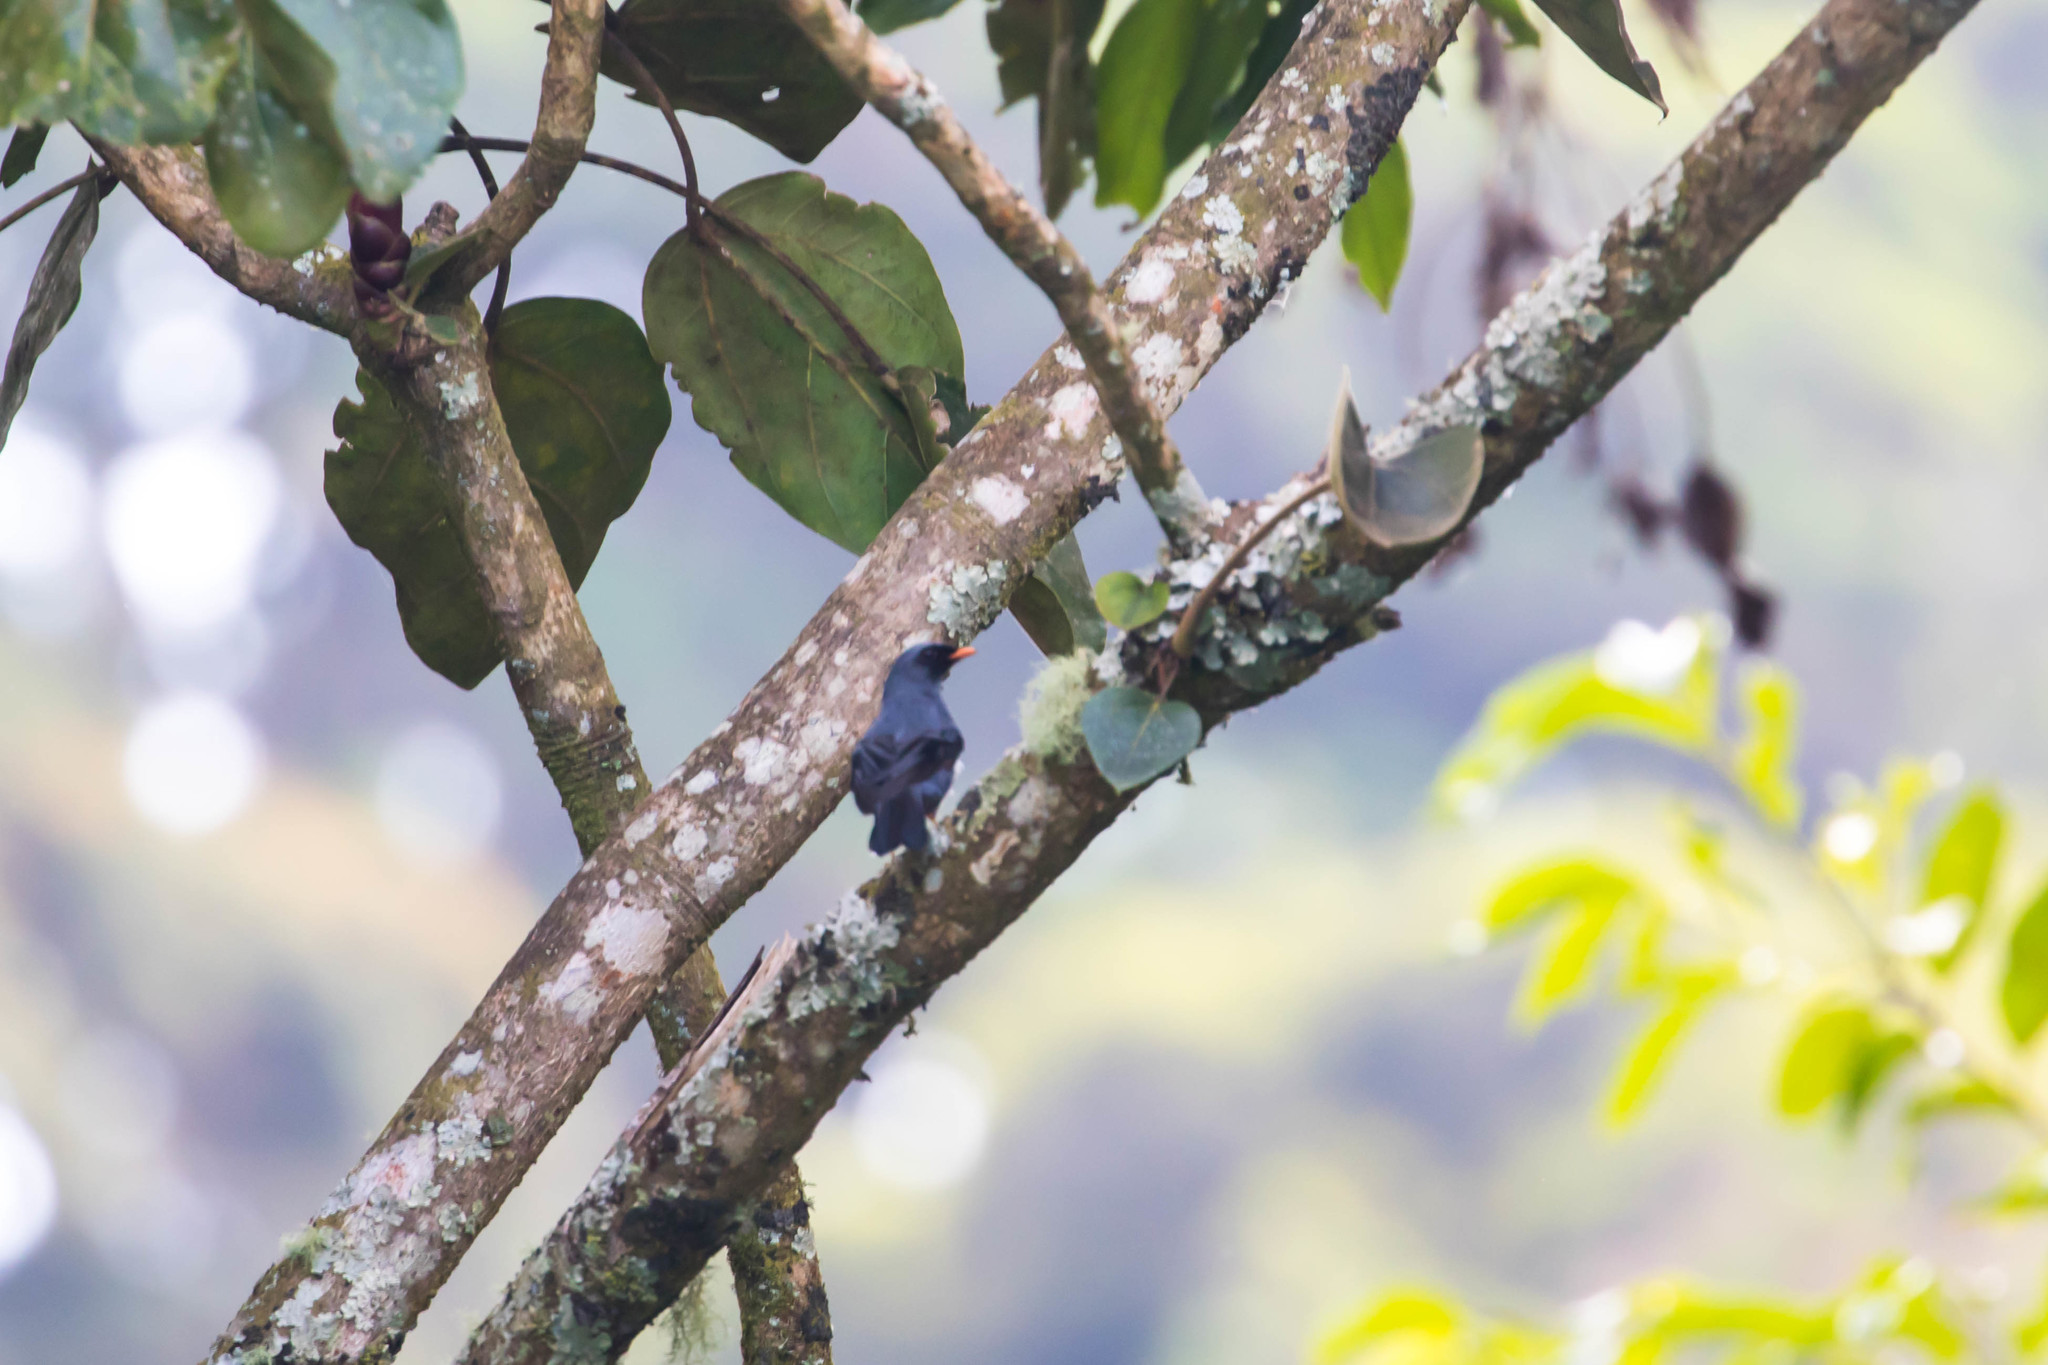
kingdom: Animalia
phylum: Chordata
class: Aves
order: Passeriformes
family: Turdidae
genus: Myadestes
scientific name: Myadestes melanops
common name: Black-faced solitaire
